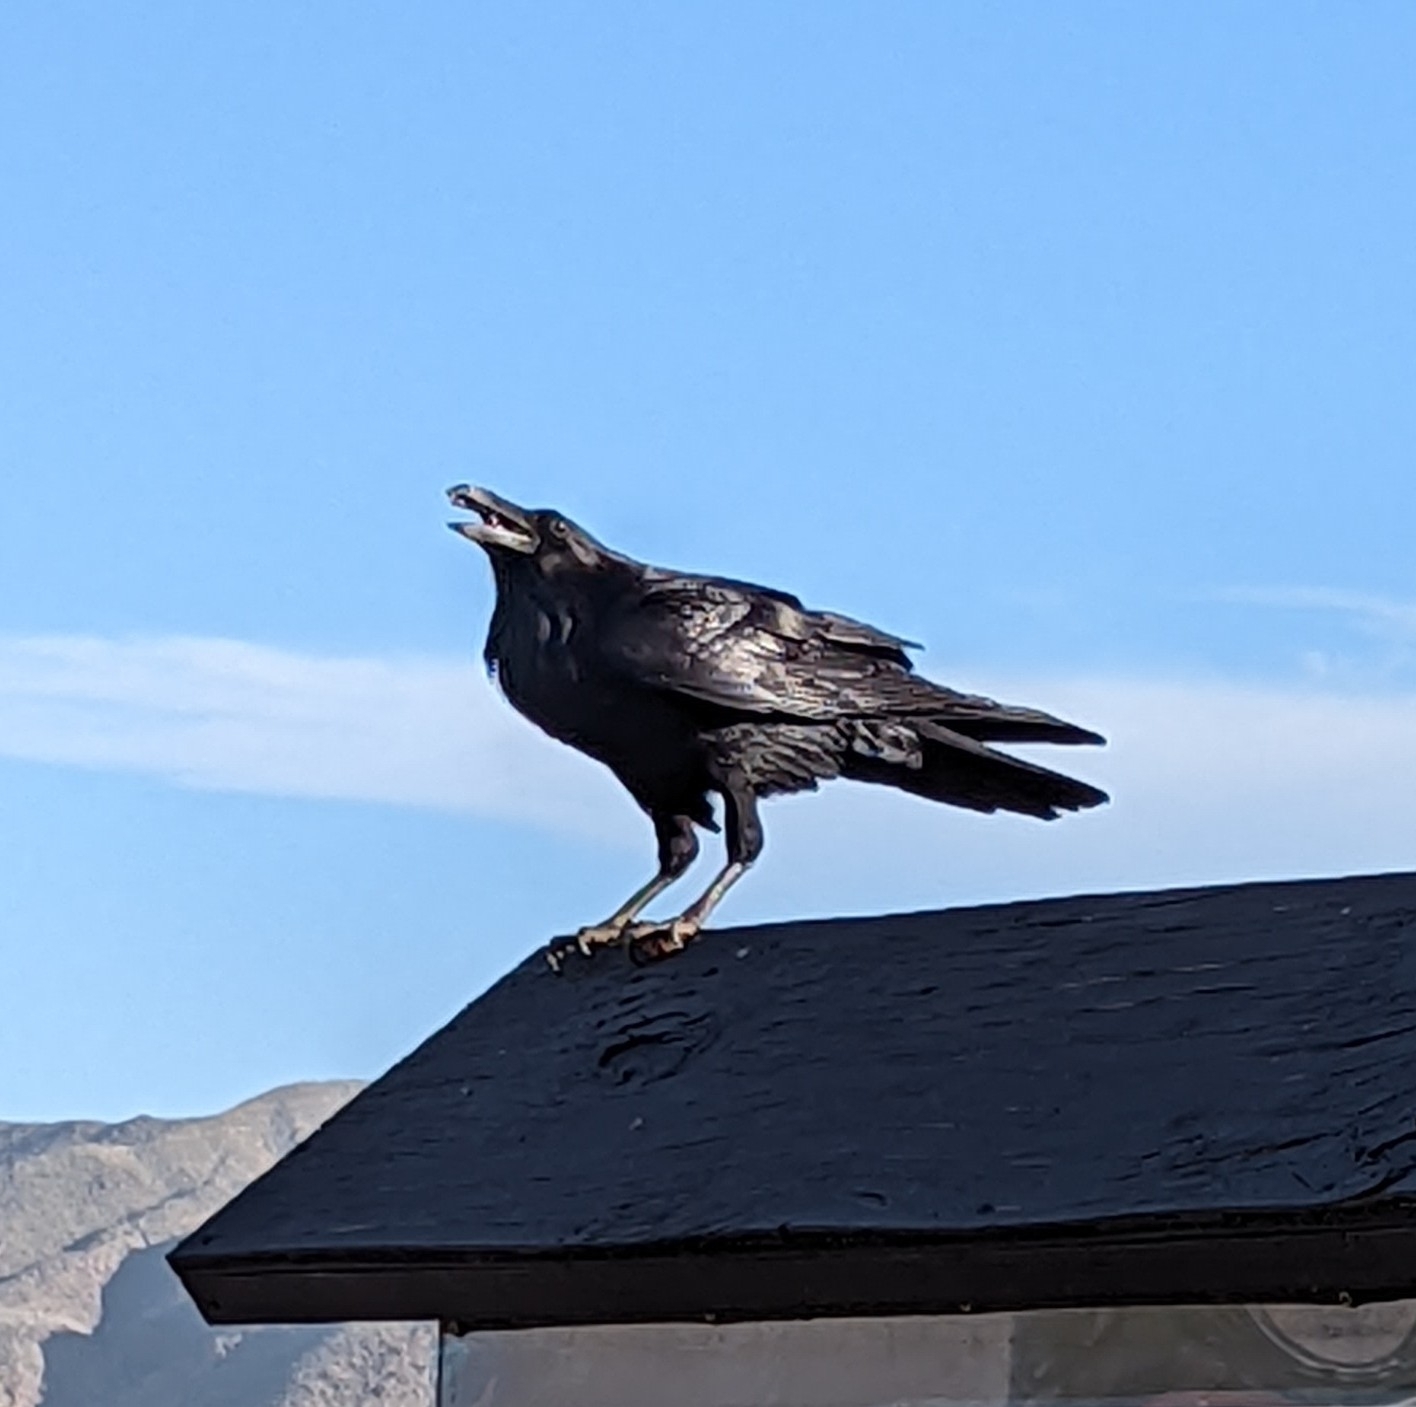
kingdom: Animalia
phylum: Chordata
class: Aves
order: Passeriformes
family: Corvidae
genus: Corvus
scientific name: Corvus corax
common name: Common raven
